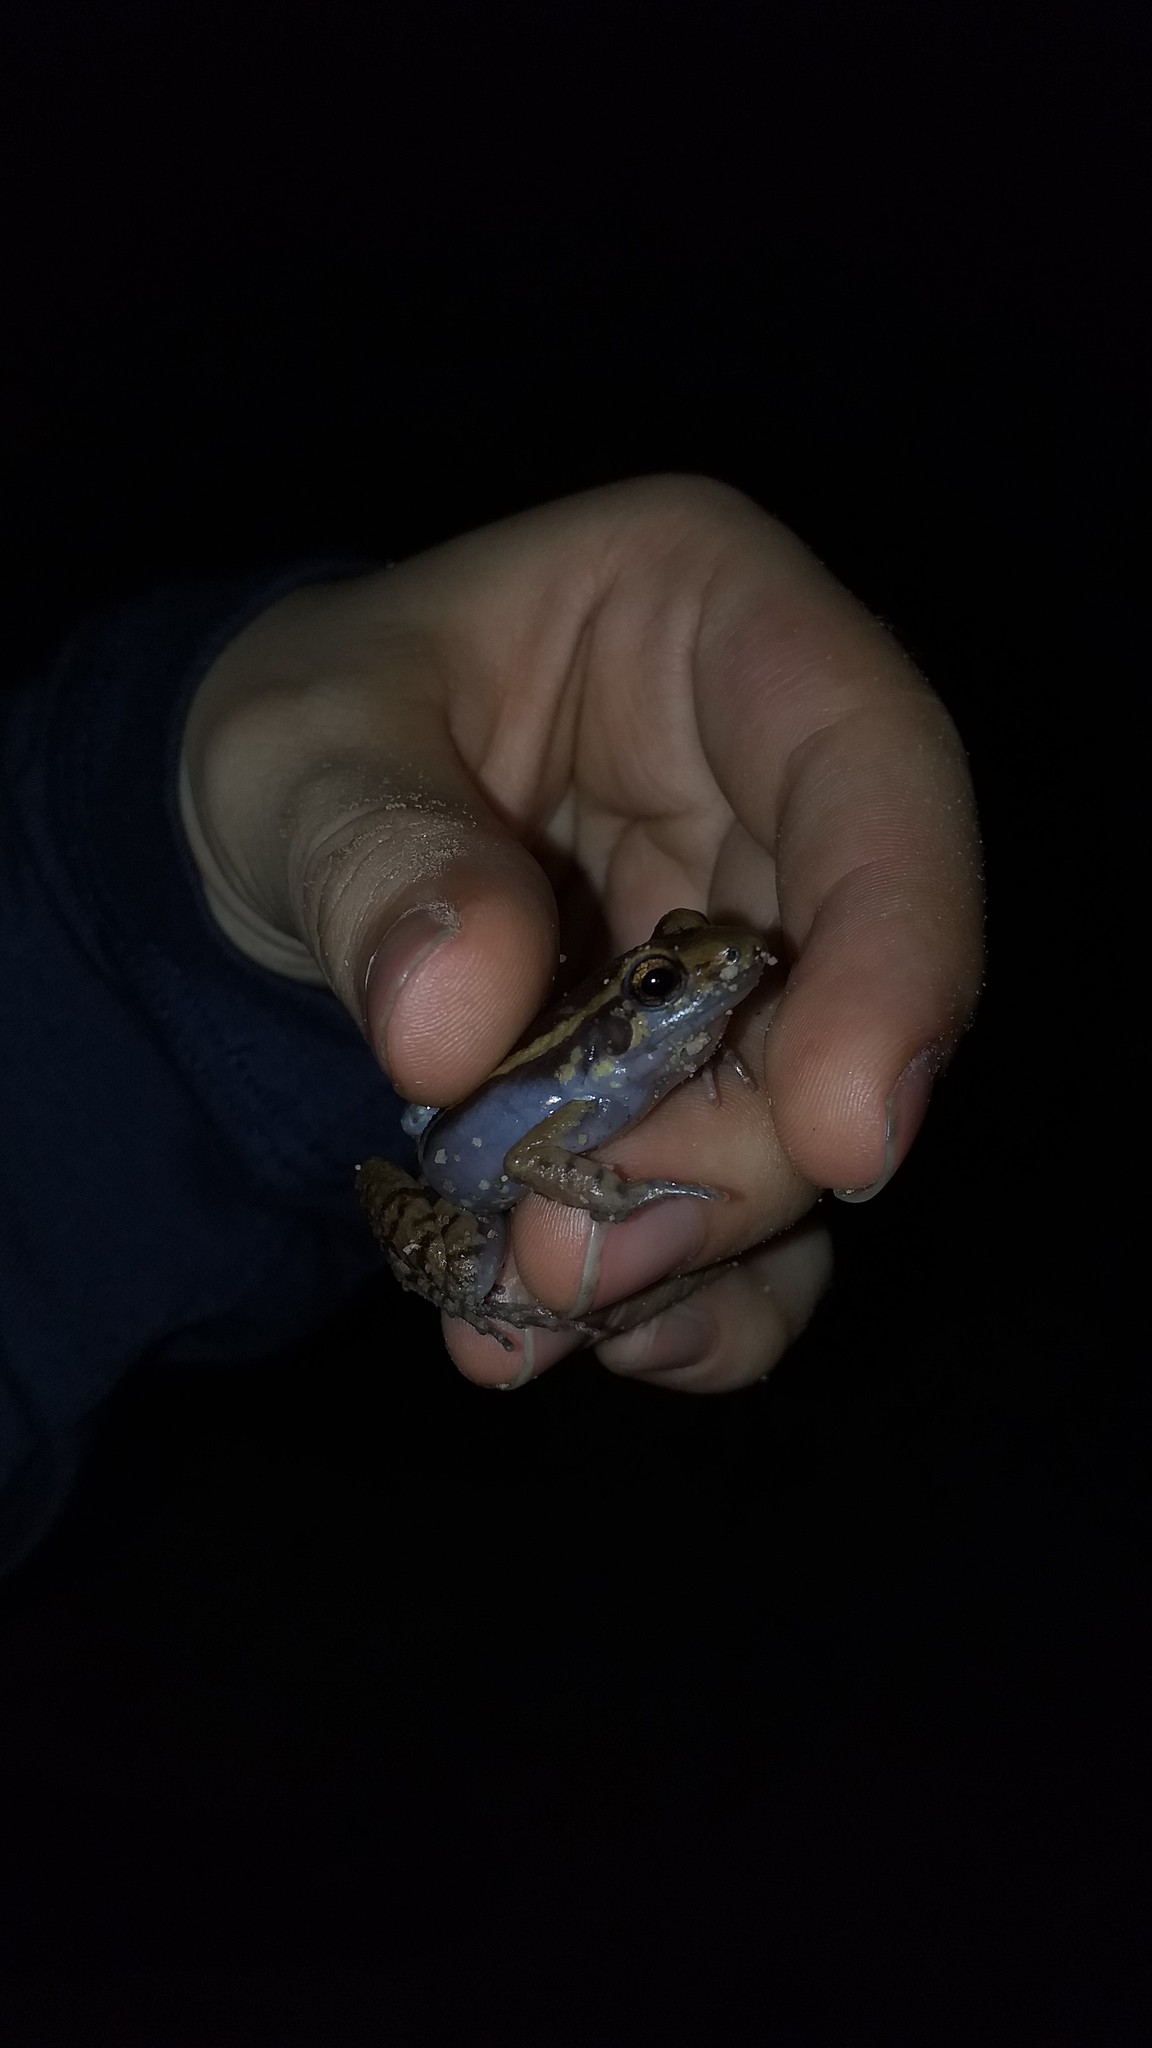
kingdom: Animalia
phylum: Chordata
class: Amphibia
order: Anura
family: Leptodactylidae
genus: Lithodytes
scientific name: Lithodytes lineatus
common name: Gold-striped frog
